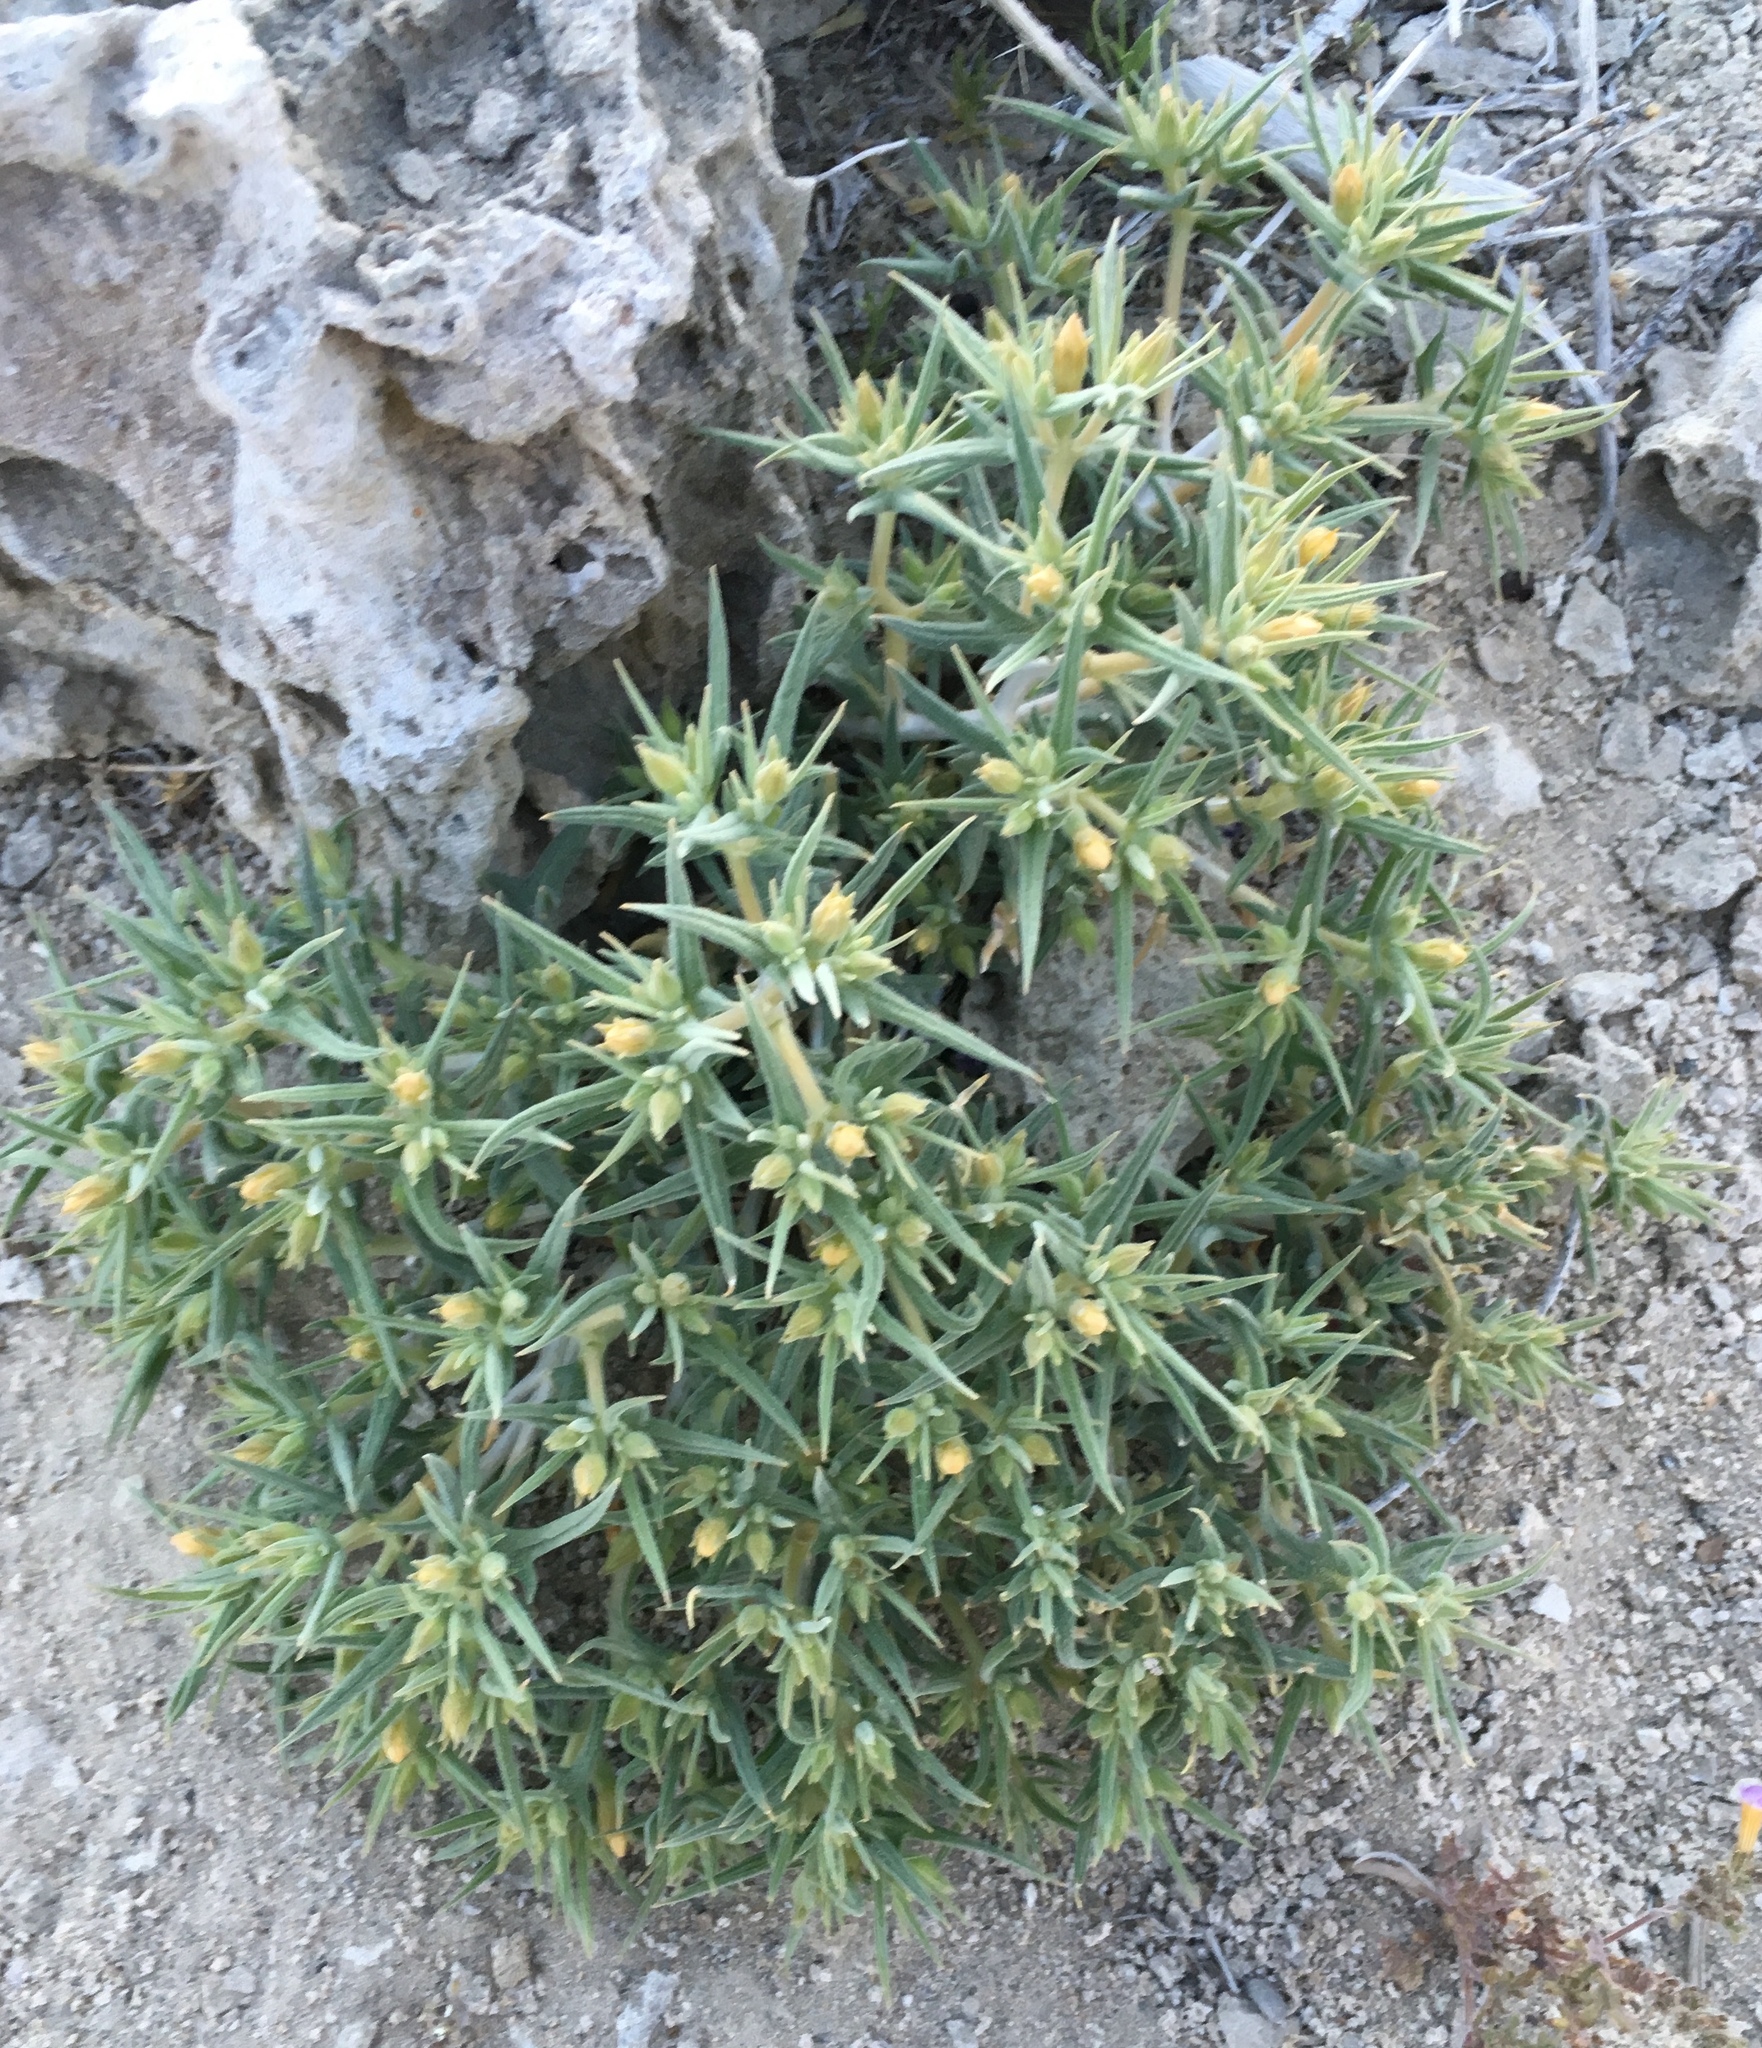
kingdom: Plantae
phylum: Tracheophyta
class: Magnoliopsida
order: Cornales
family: Loasaceae
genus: Mentzelia
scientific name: Mentzelia torreyi
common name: Torrey's blazingstar
